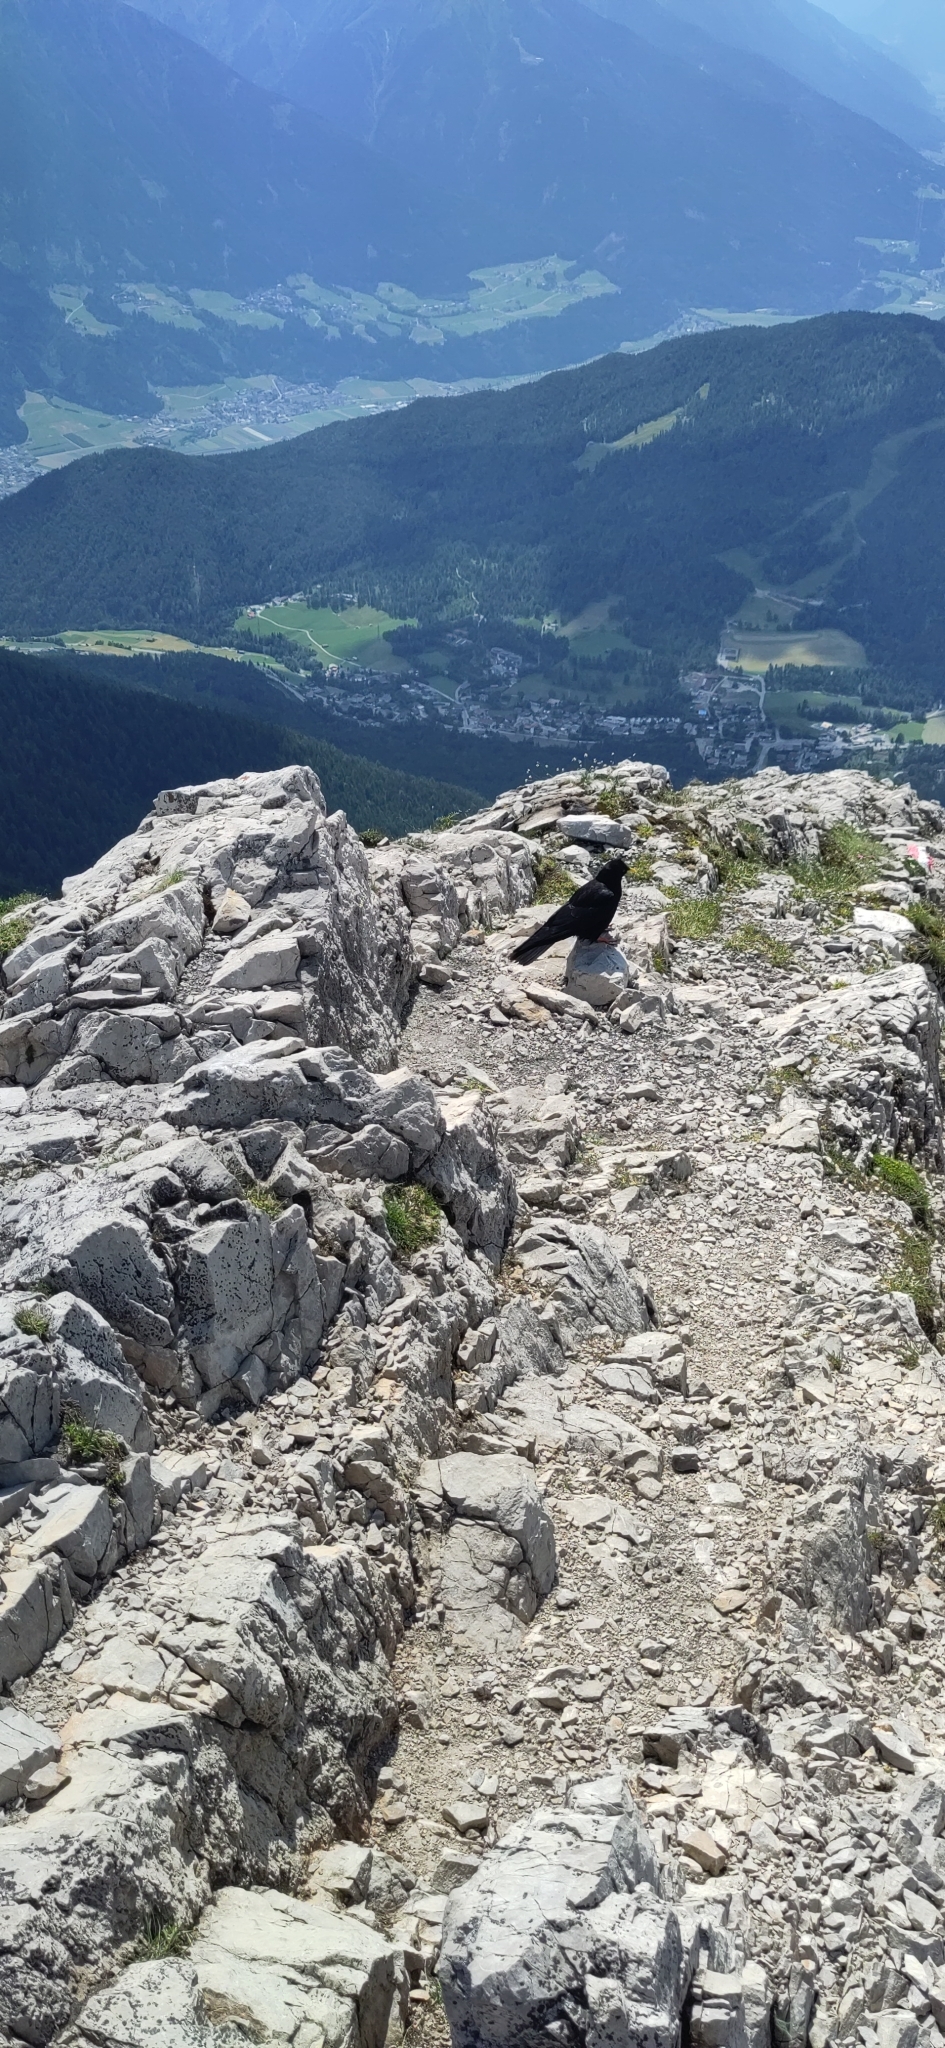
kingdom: Animalia
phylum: Chordata
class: Aves
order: Passeriformes
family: Corvidae
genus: Pyrrhocorax
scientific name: Pyrrhocorax graculus
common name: Alpine chough
